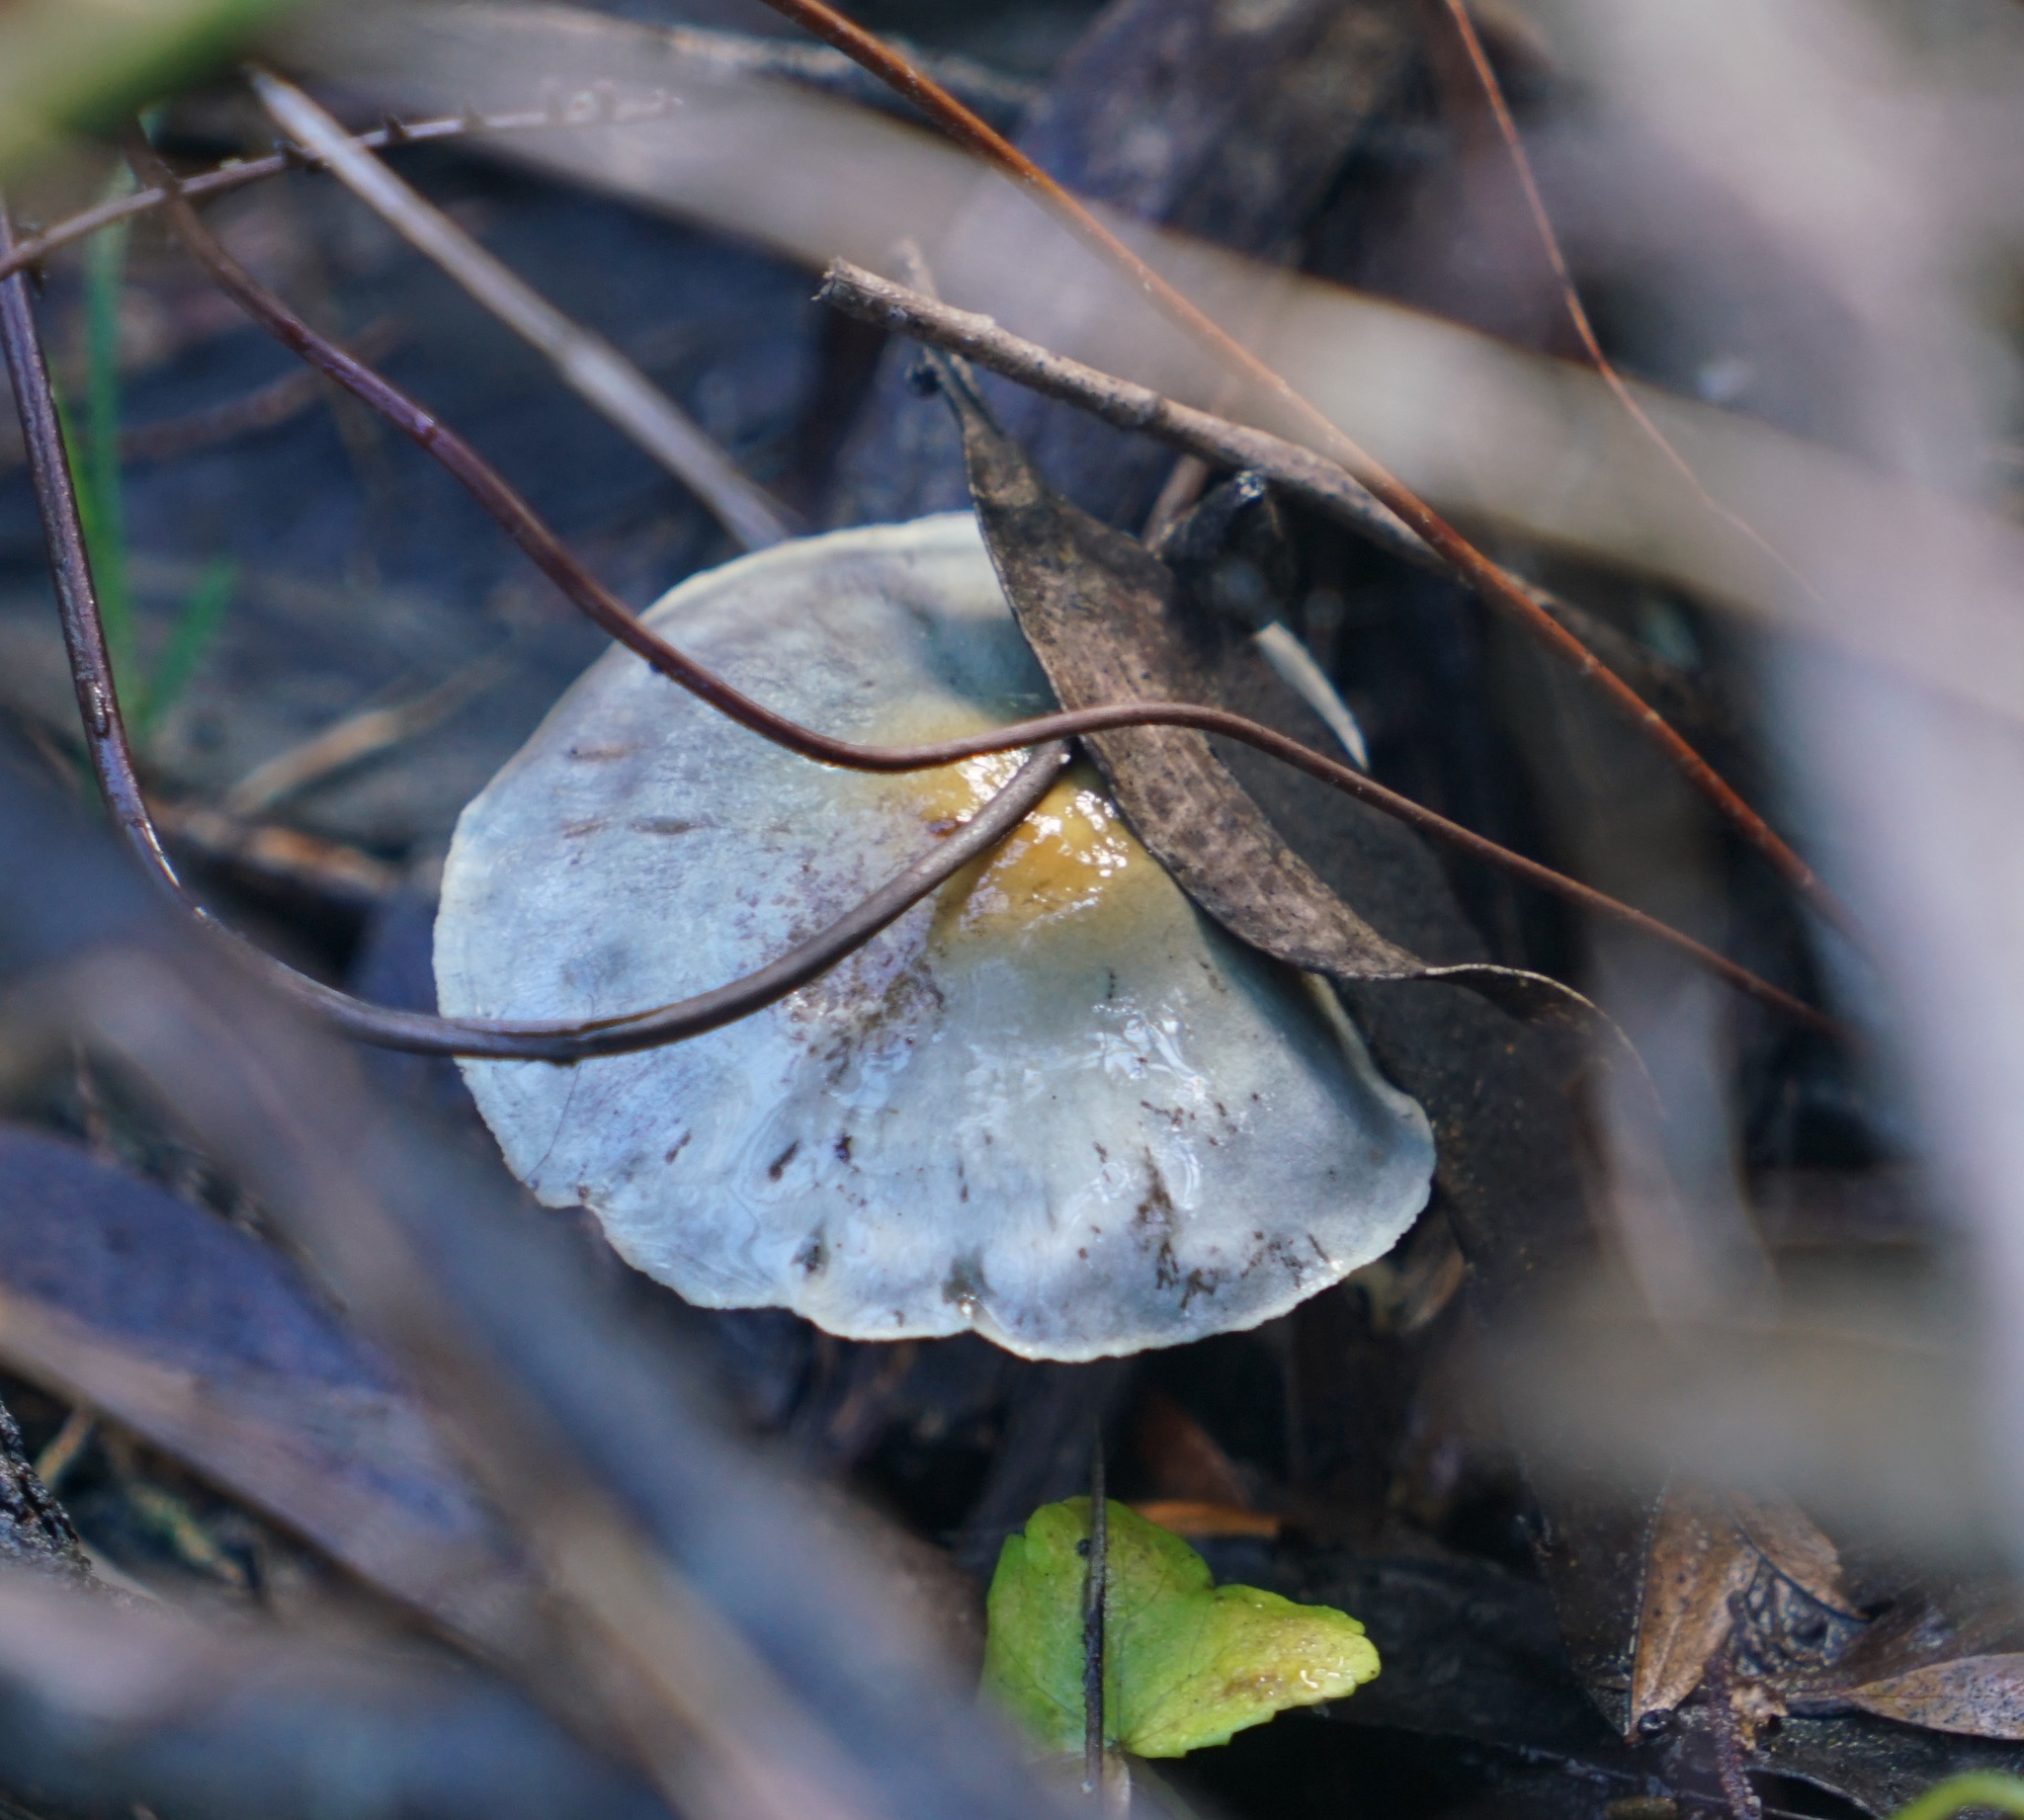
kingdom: Fungi
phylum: Basidiomycota
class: Agaricomycetes
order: Agaricales
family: Cortinariaceae
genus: Cortinarius
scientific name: Cortinarius rotundisporus
